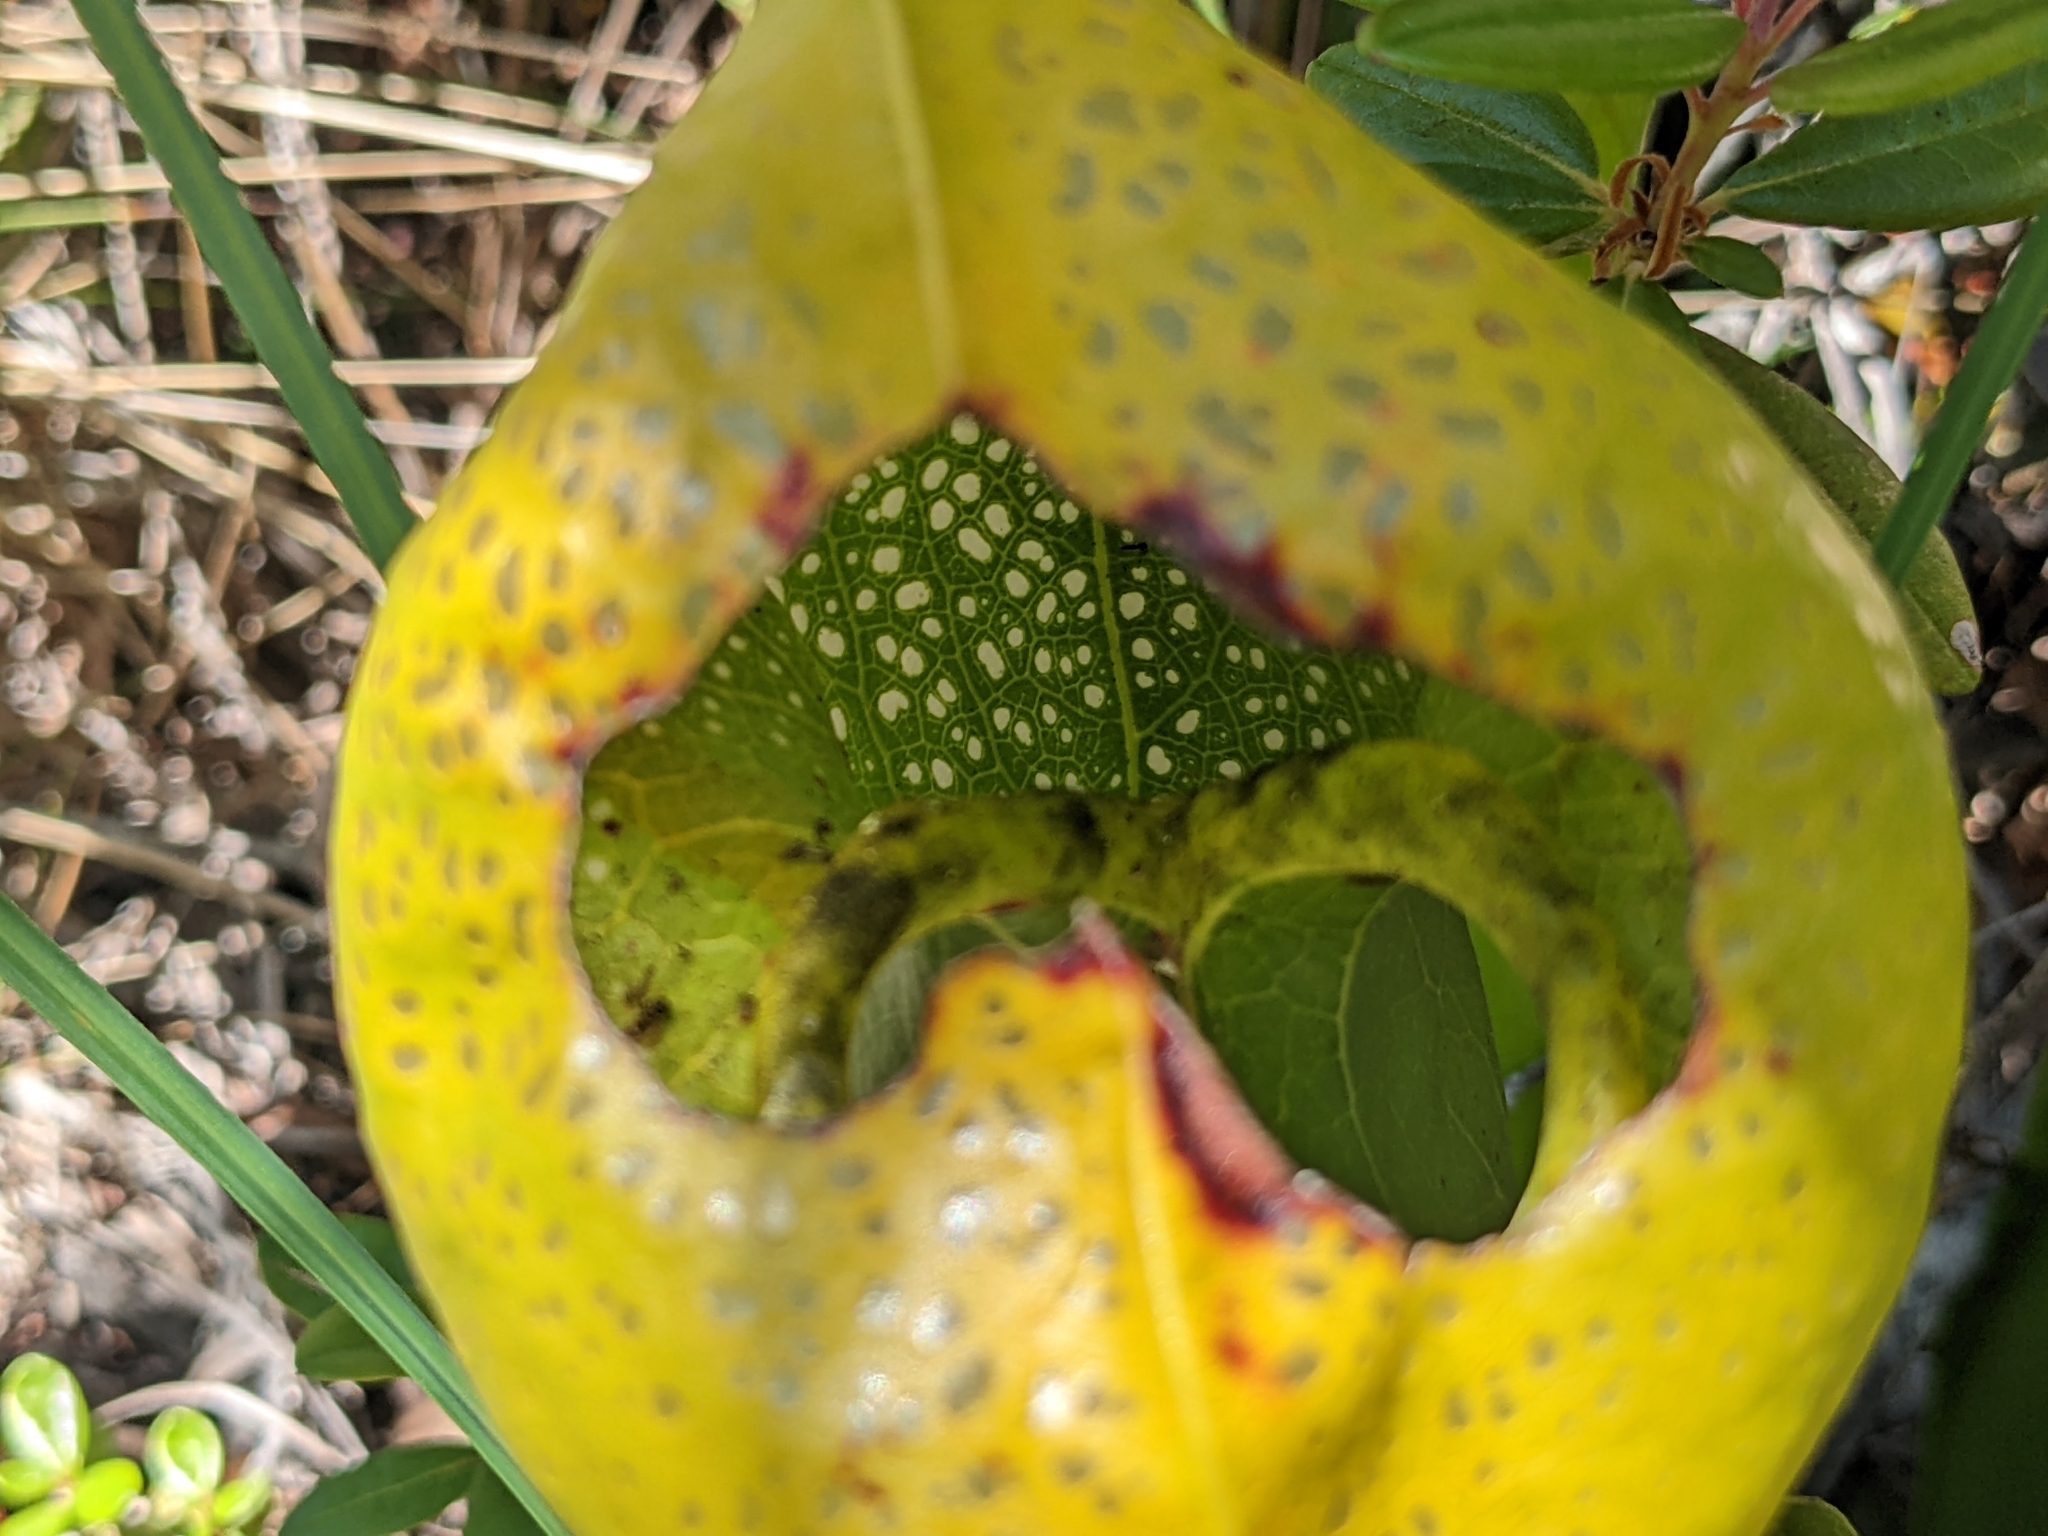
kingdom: Plantae
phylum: Tracheophyta
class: Magnoliopsida
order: Ericales
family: Sarraceniaceae
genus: Darlingtonia
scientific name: Darlingtonia californica
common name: California pitcher plant
